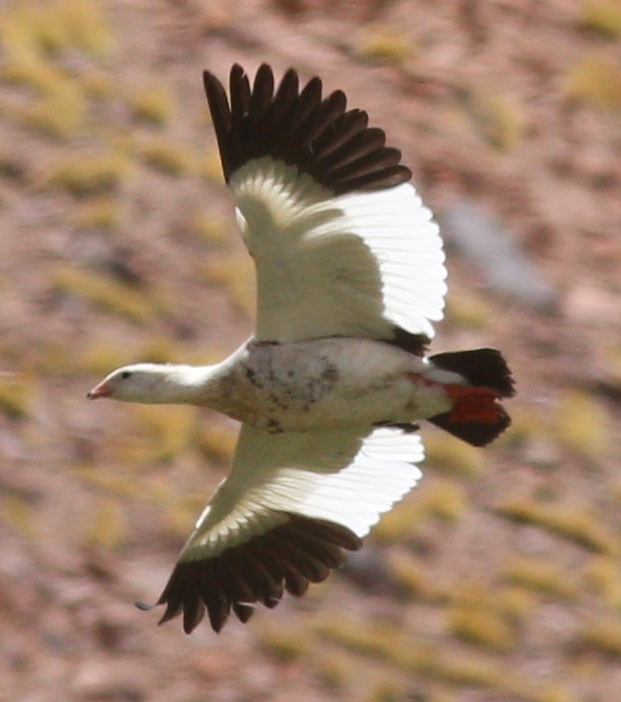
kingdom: Animalia
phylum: Chordata
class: Aves
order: Anseriformes
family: Anatidae
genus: Chloephaga
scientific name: Chloephaga melanoptera
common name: Andean goose
